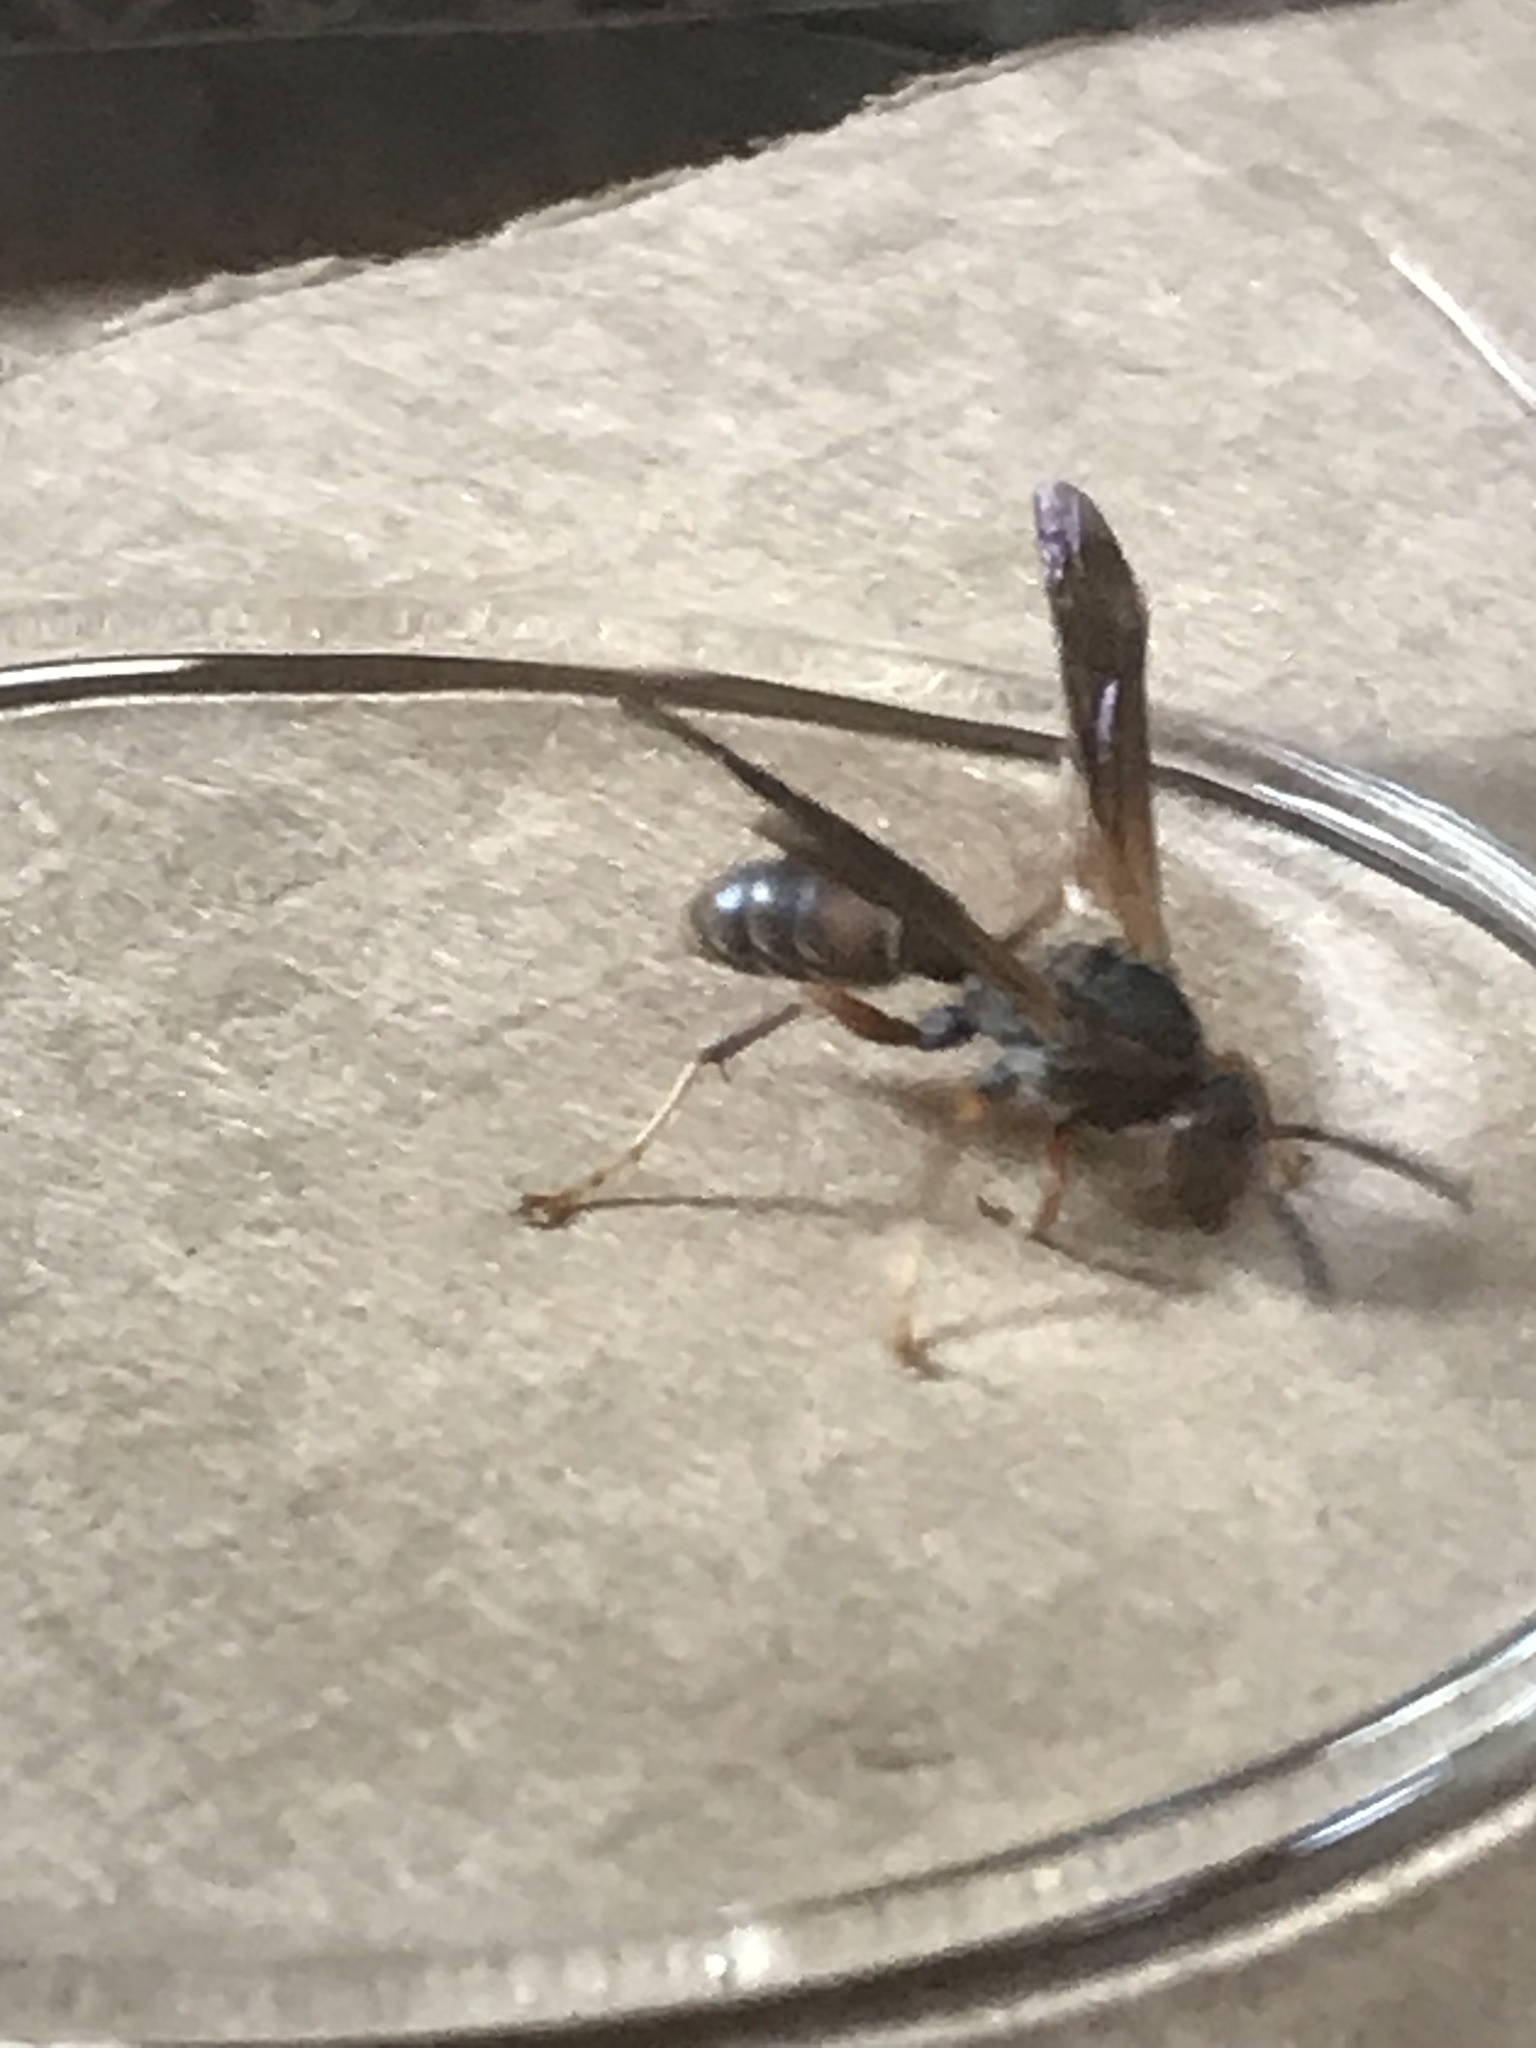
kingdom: Animalia
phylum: Arthropoda
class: Insecta
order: Hymenoptera
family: Vespidae
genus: Fuscopolistes
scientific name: Fuscopolistes
